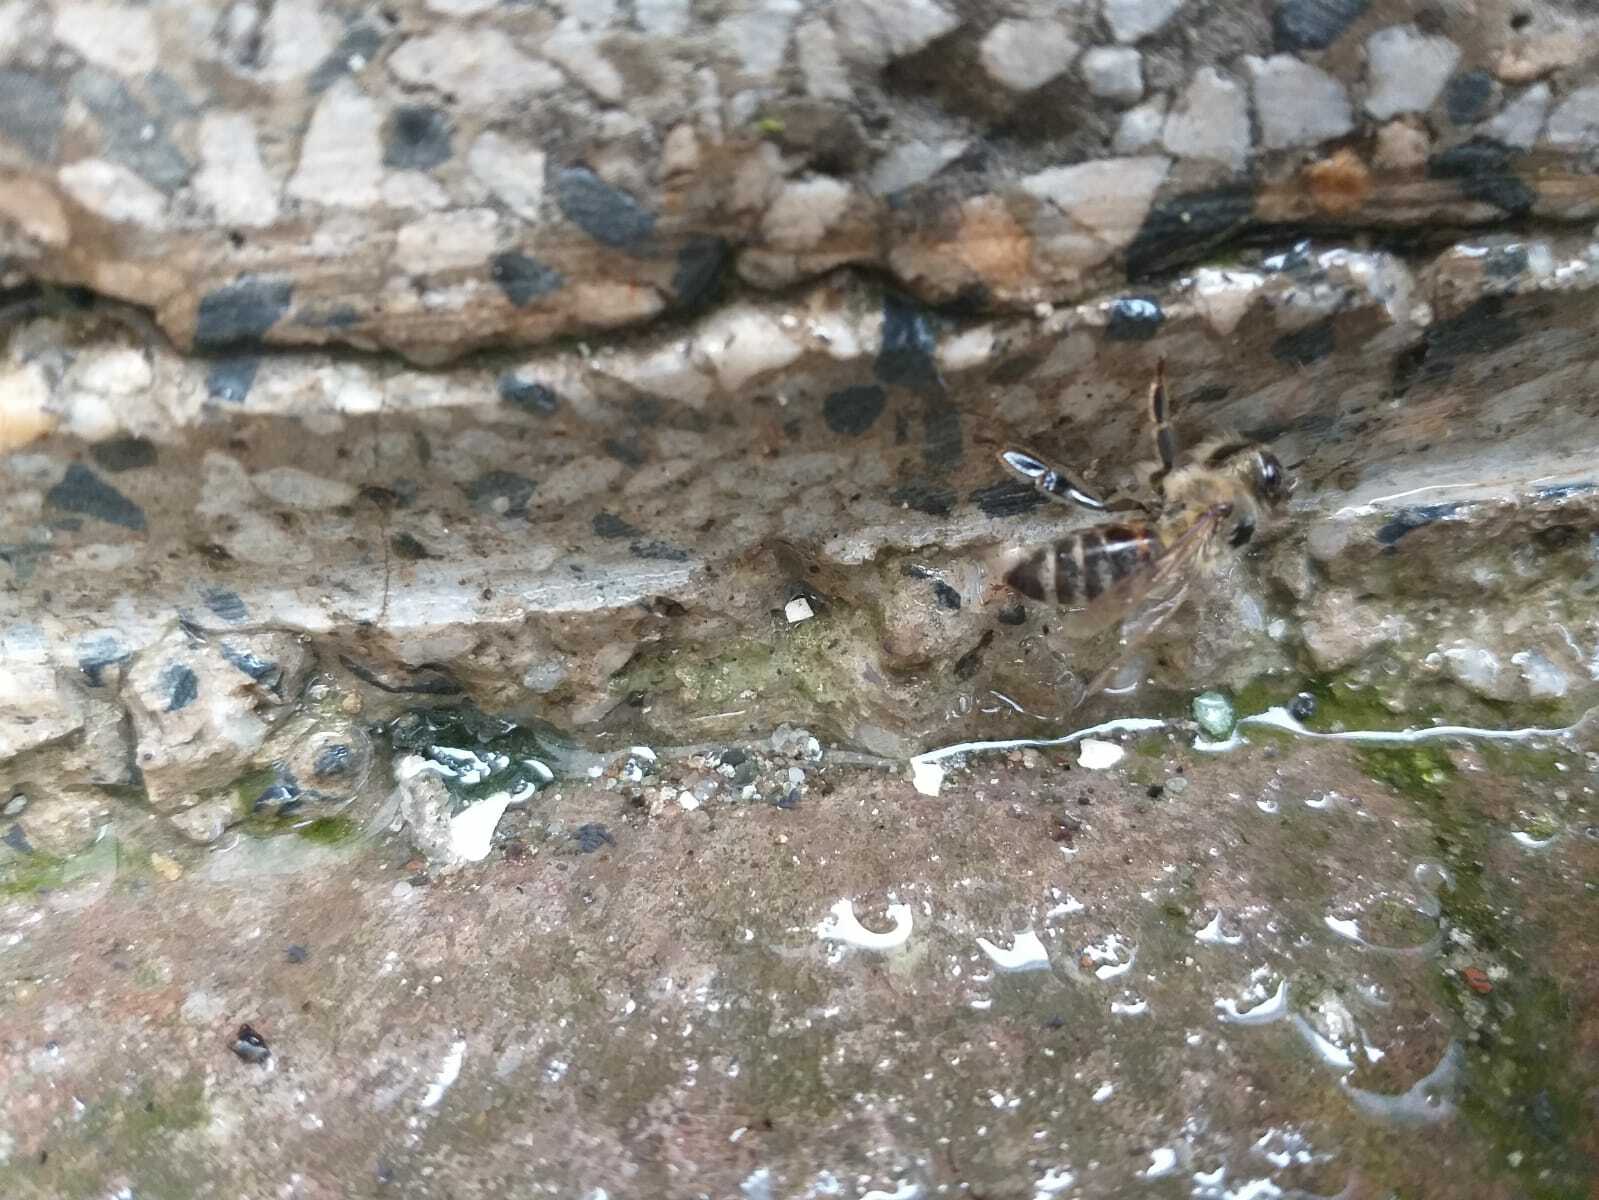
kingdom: Animalia
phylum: Arthropoda
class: Insecta
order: Hymenoptera
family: Apidae
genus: Apis
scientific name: Apis mellifera
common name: Honey bee
